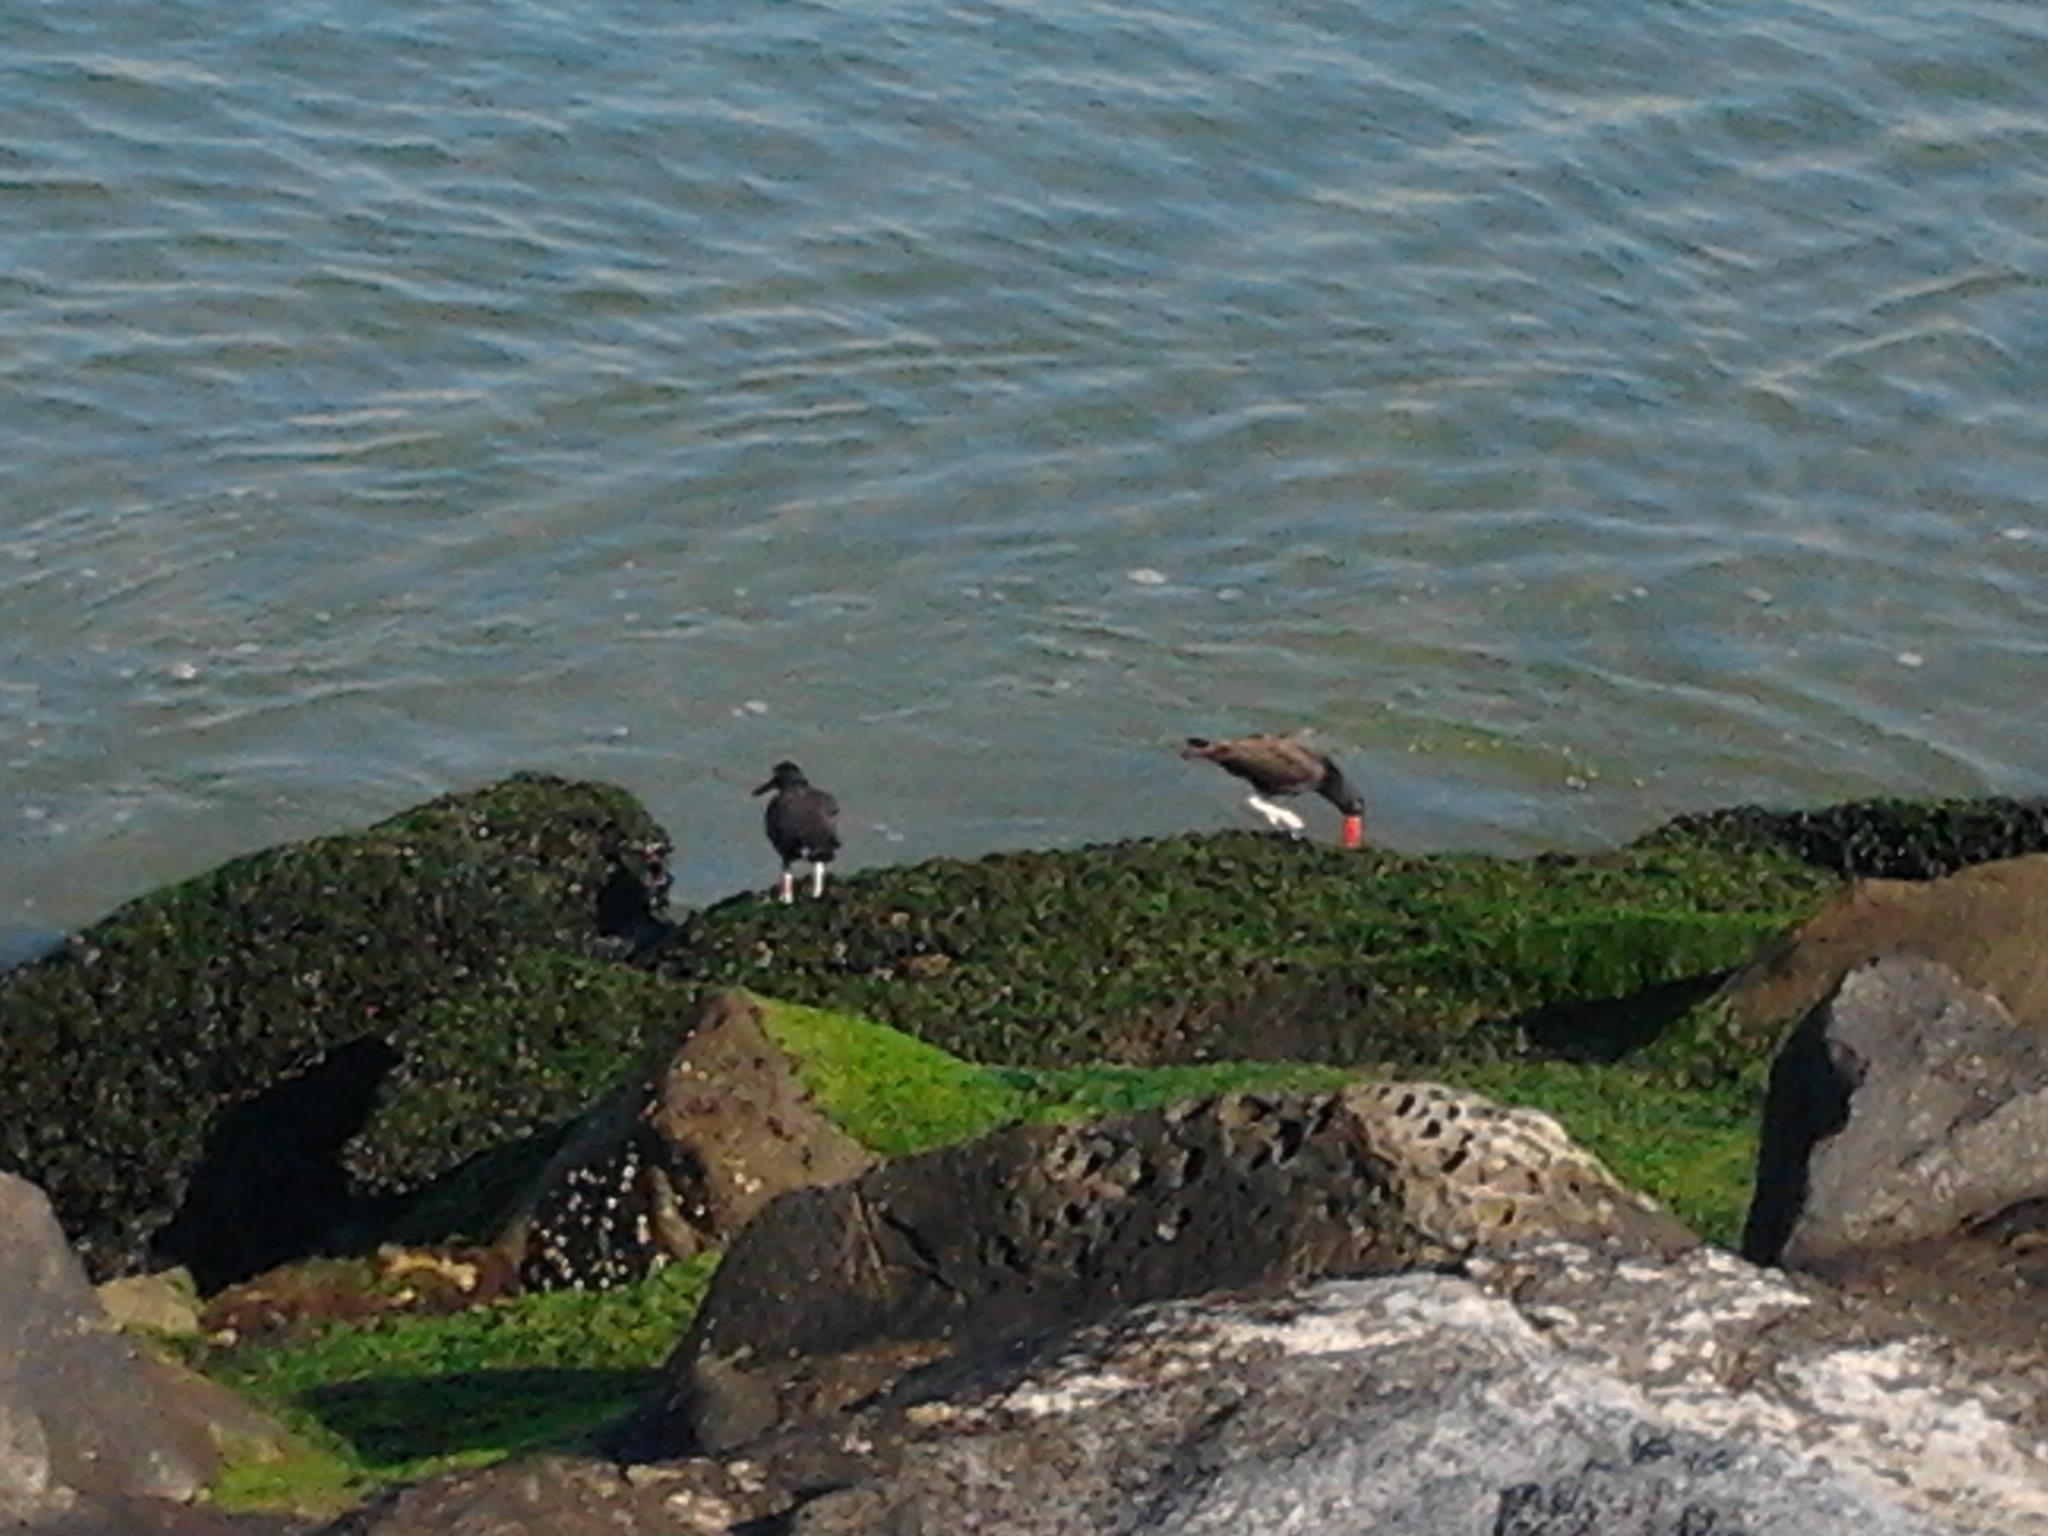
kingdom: Animalia
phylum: Chordata
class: Aves
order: Charadriiformes
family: Haematopodidae
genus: Haematopus
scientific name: Haematopus bachmani
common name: Black oystercatcher
